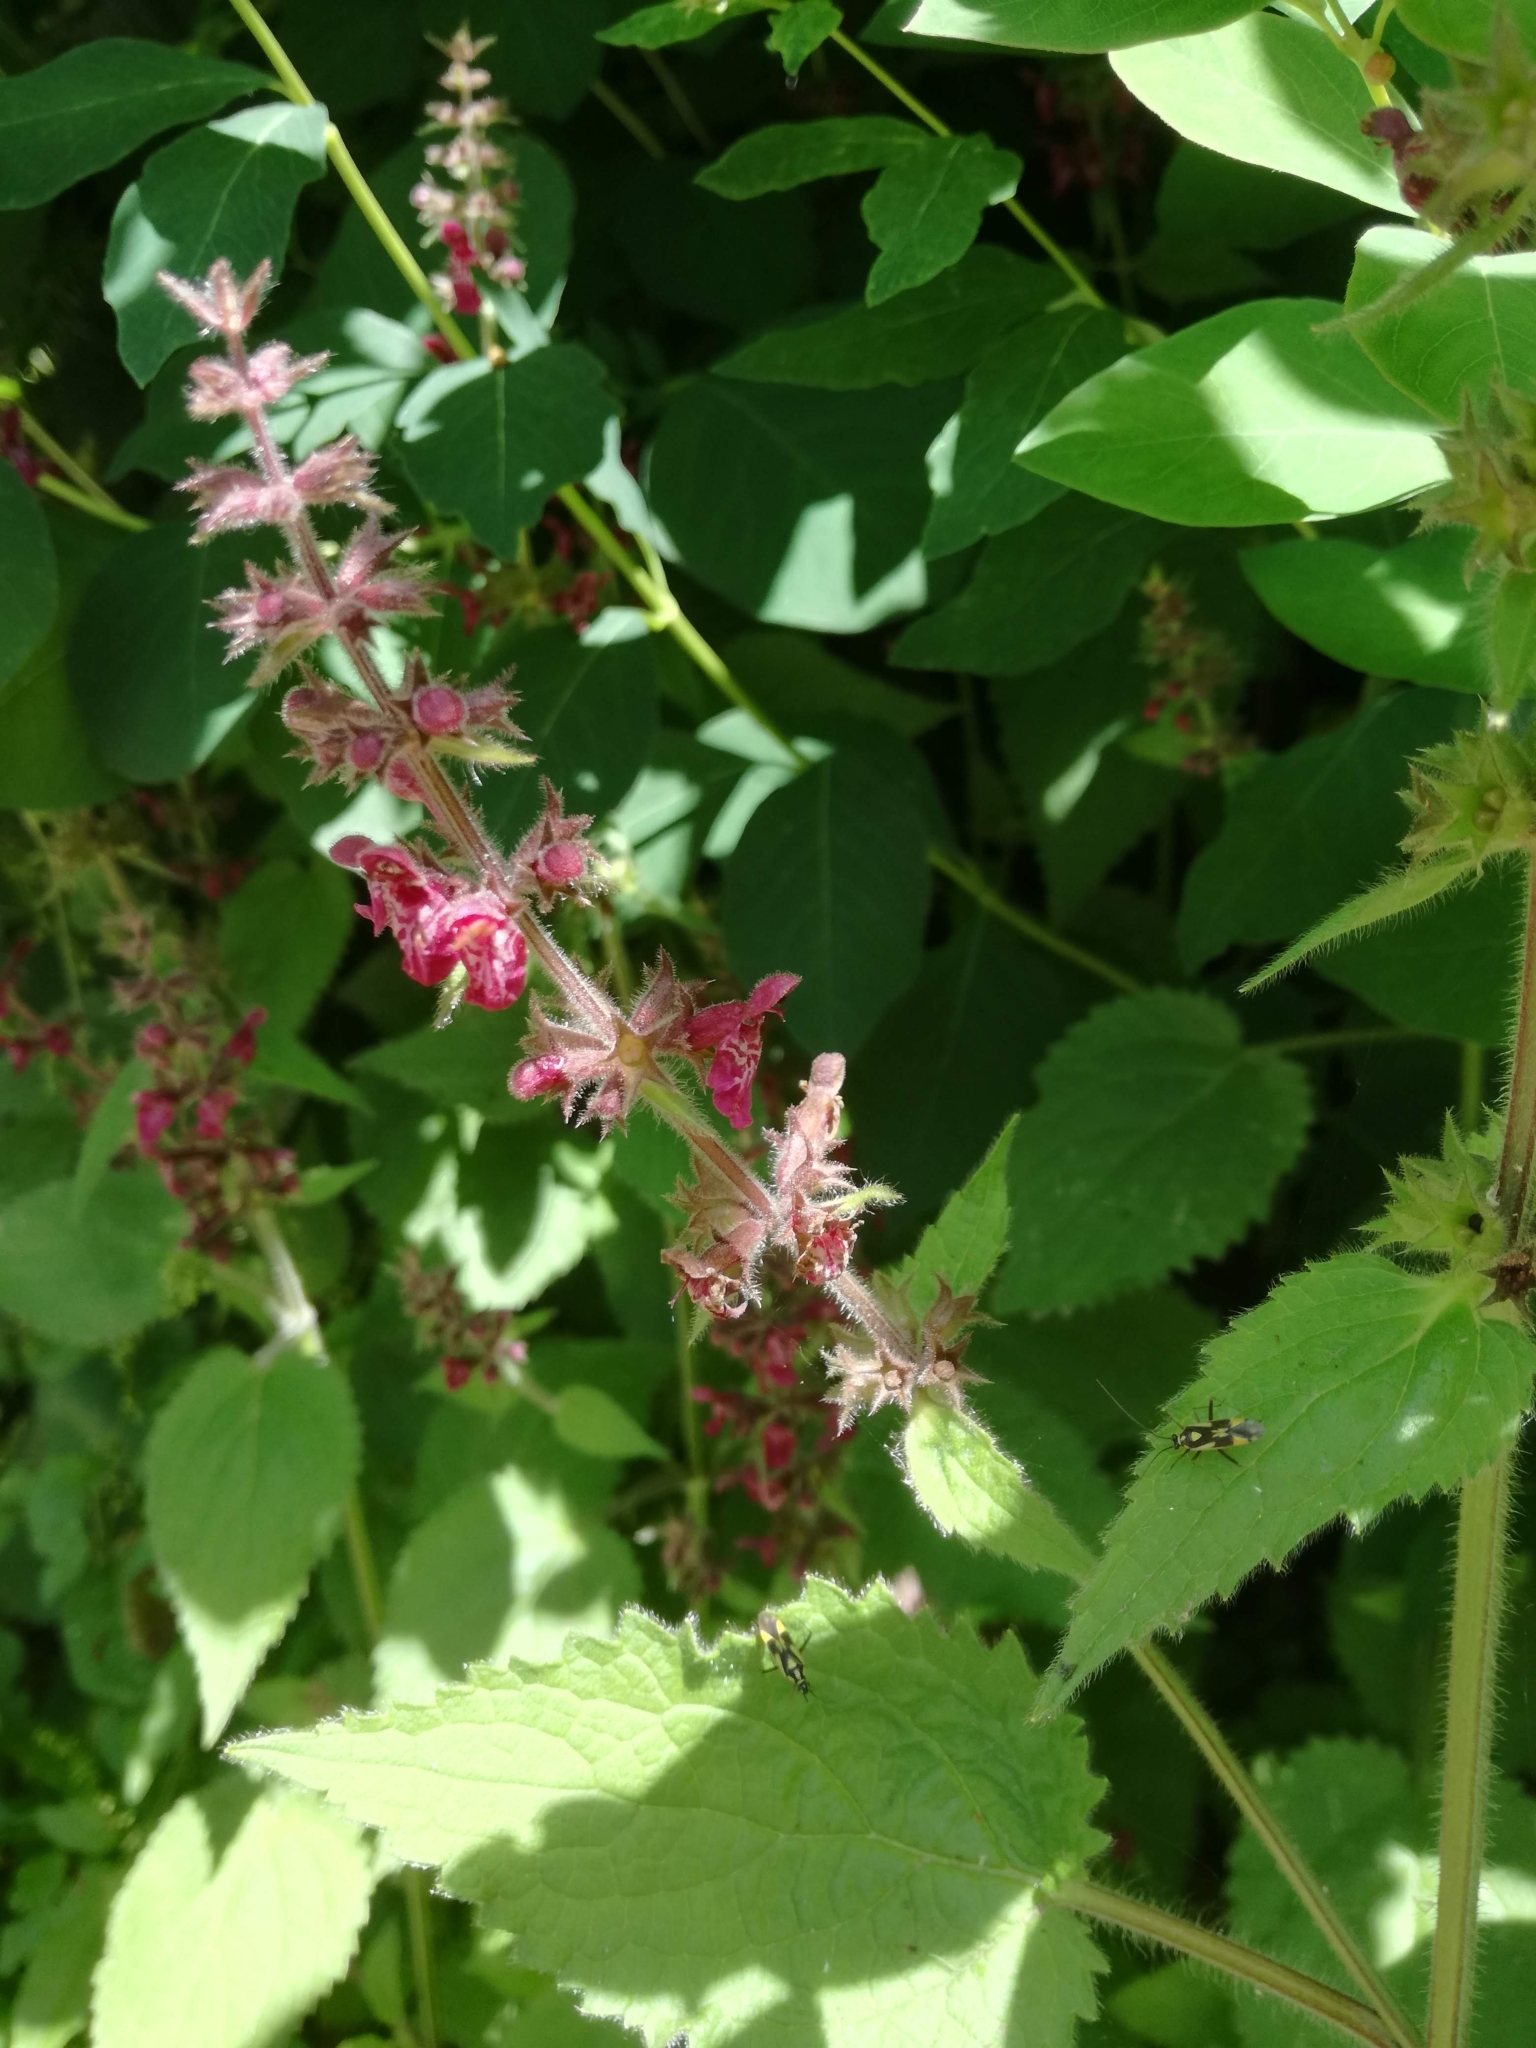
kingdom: Plantae
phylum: Tracheophyta
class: Magnoliopsida
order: Lamiales
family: Lamiaceae
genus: Stachys
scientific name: Stachys sylvatica
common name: Hedge woundwort
